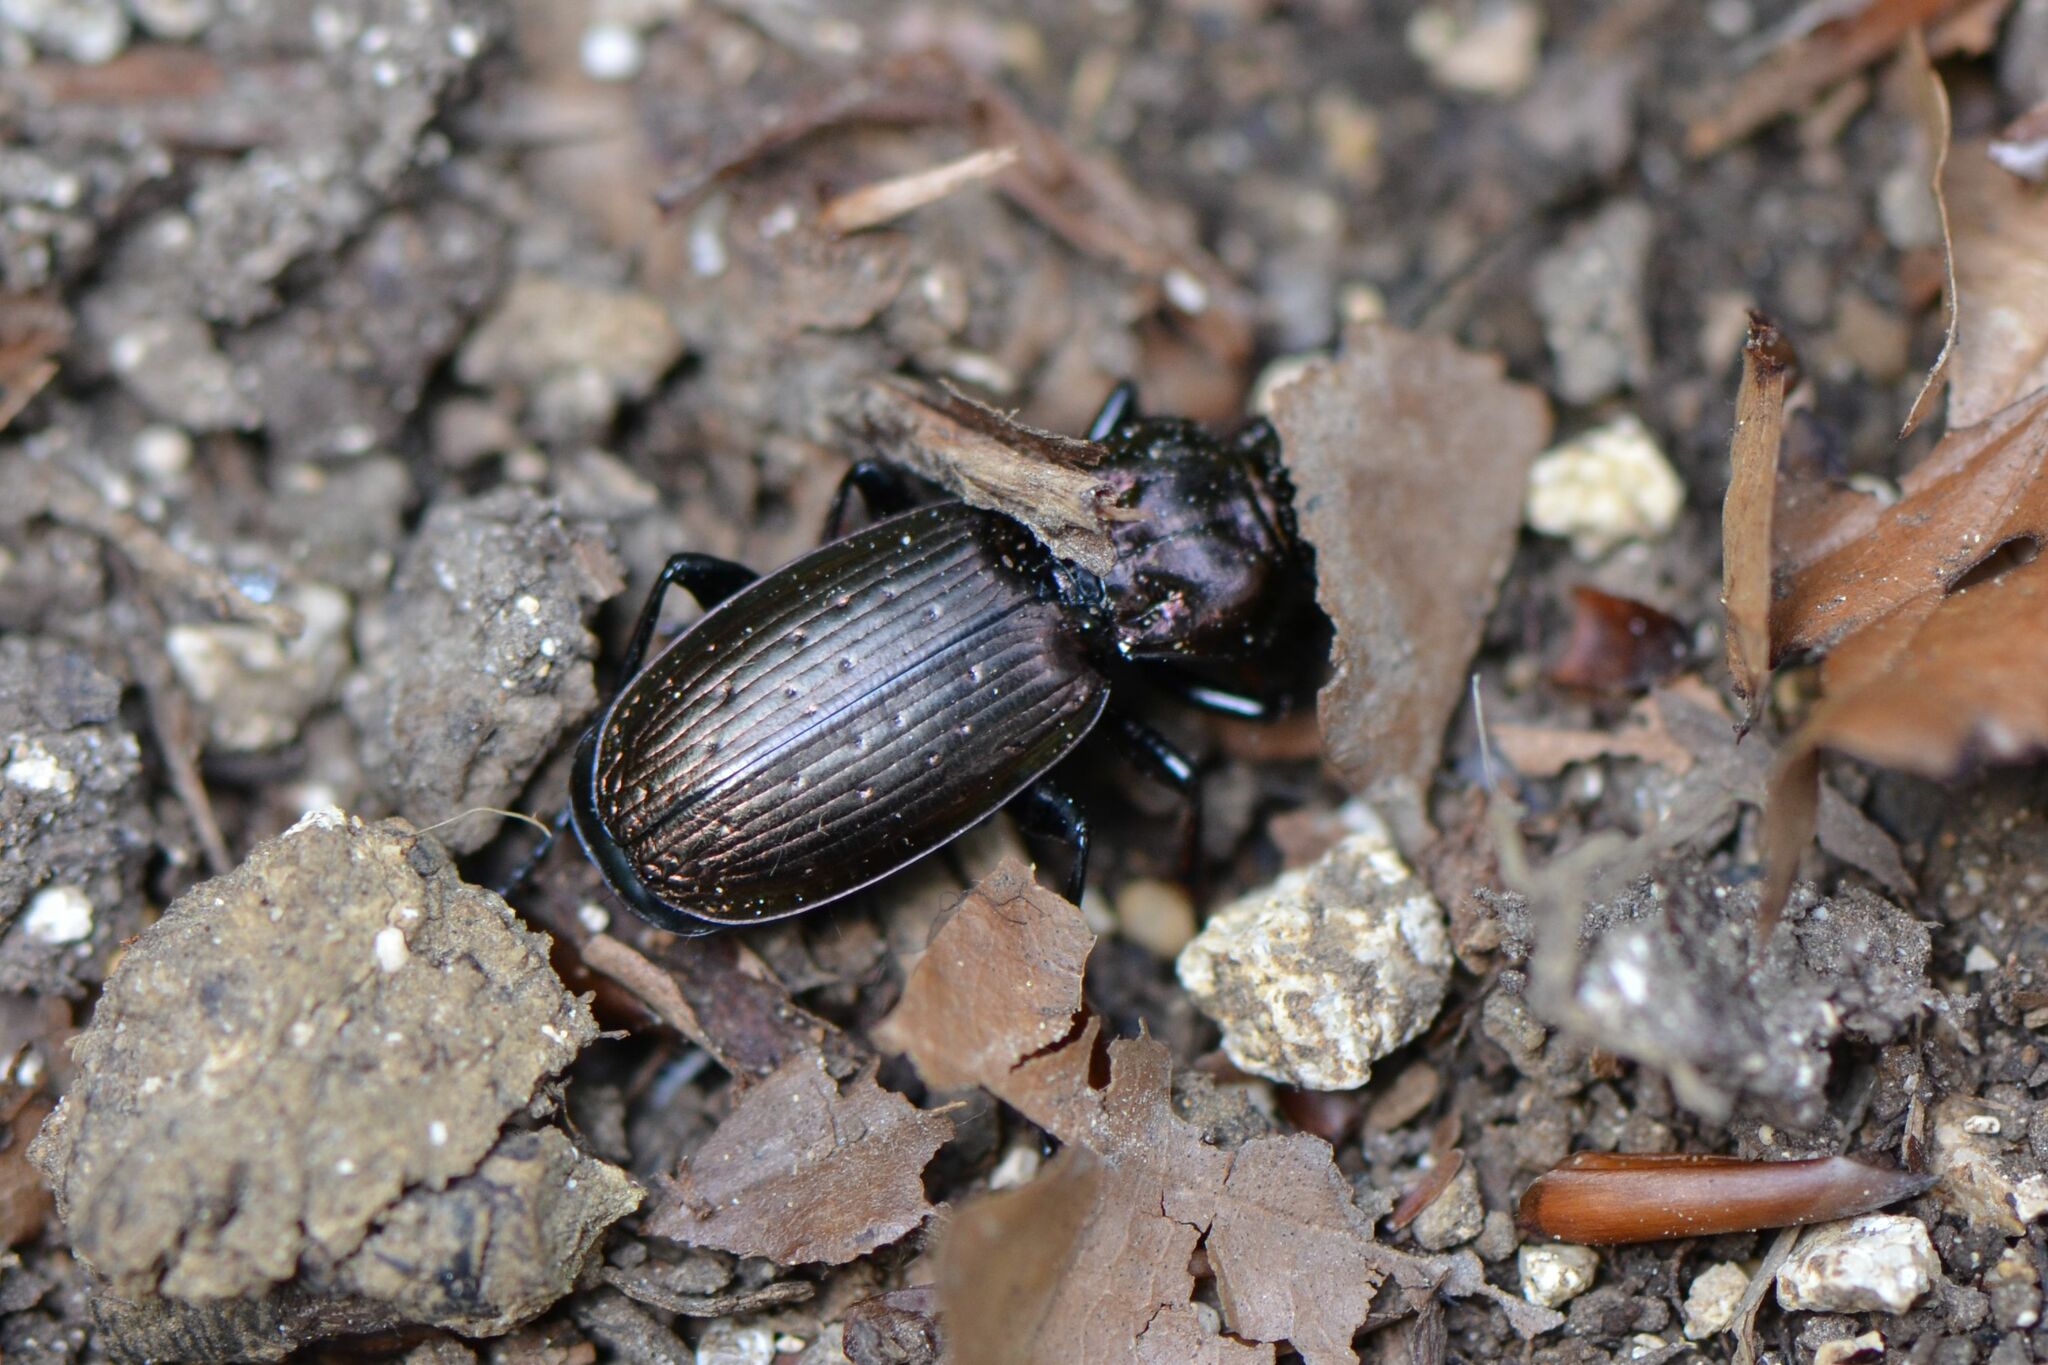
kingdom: Animalia
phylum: Arthropoda
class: Insecta
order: Coleoptera
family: Carabidae
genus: Pterostichus
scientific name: Pterostichus selmanni
